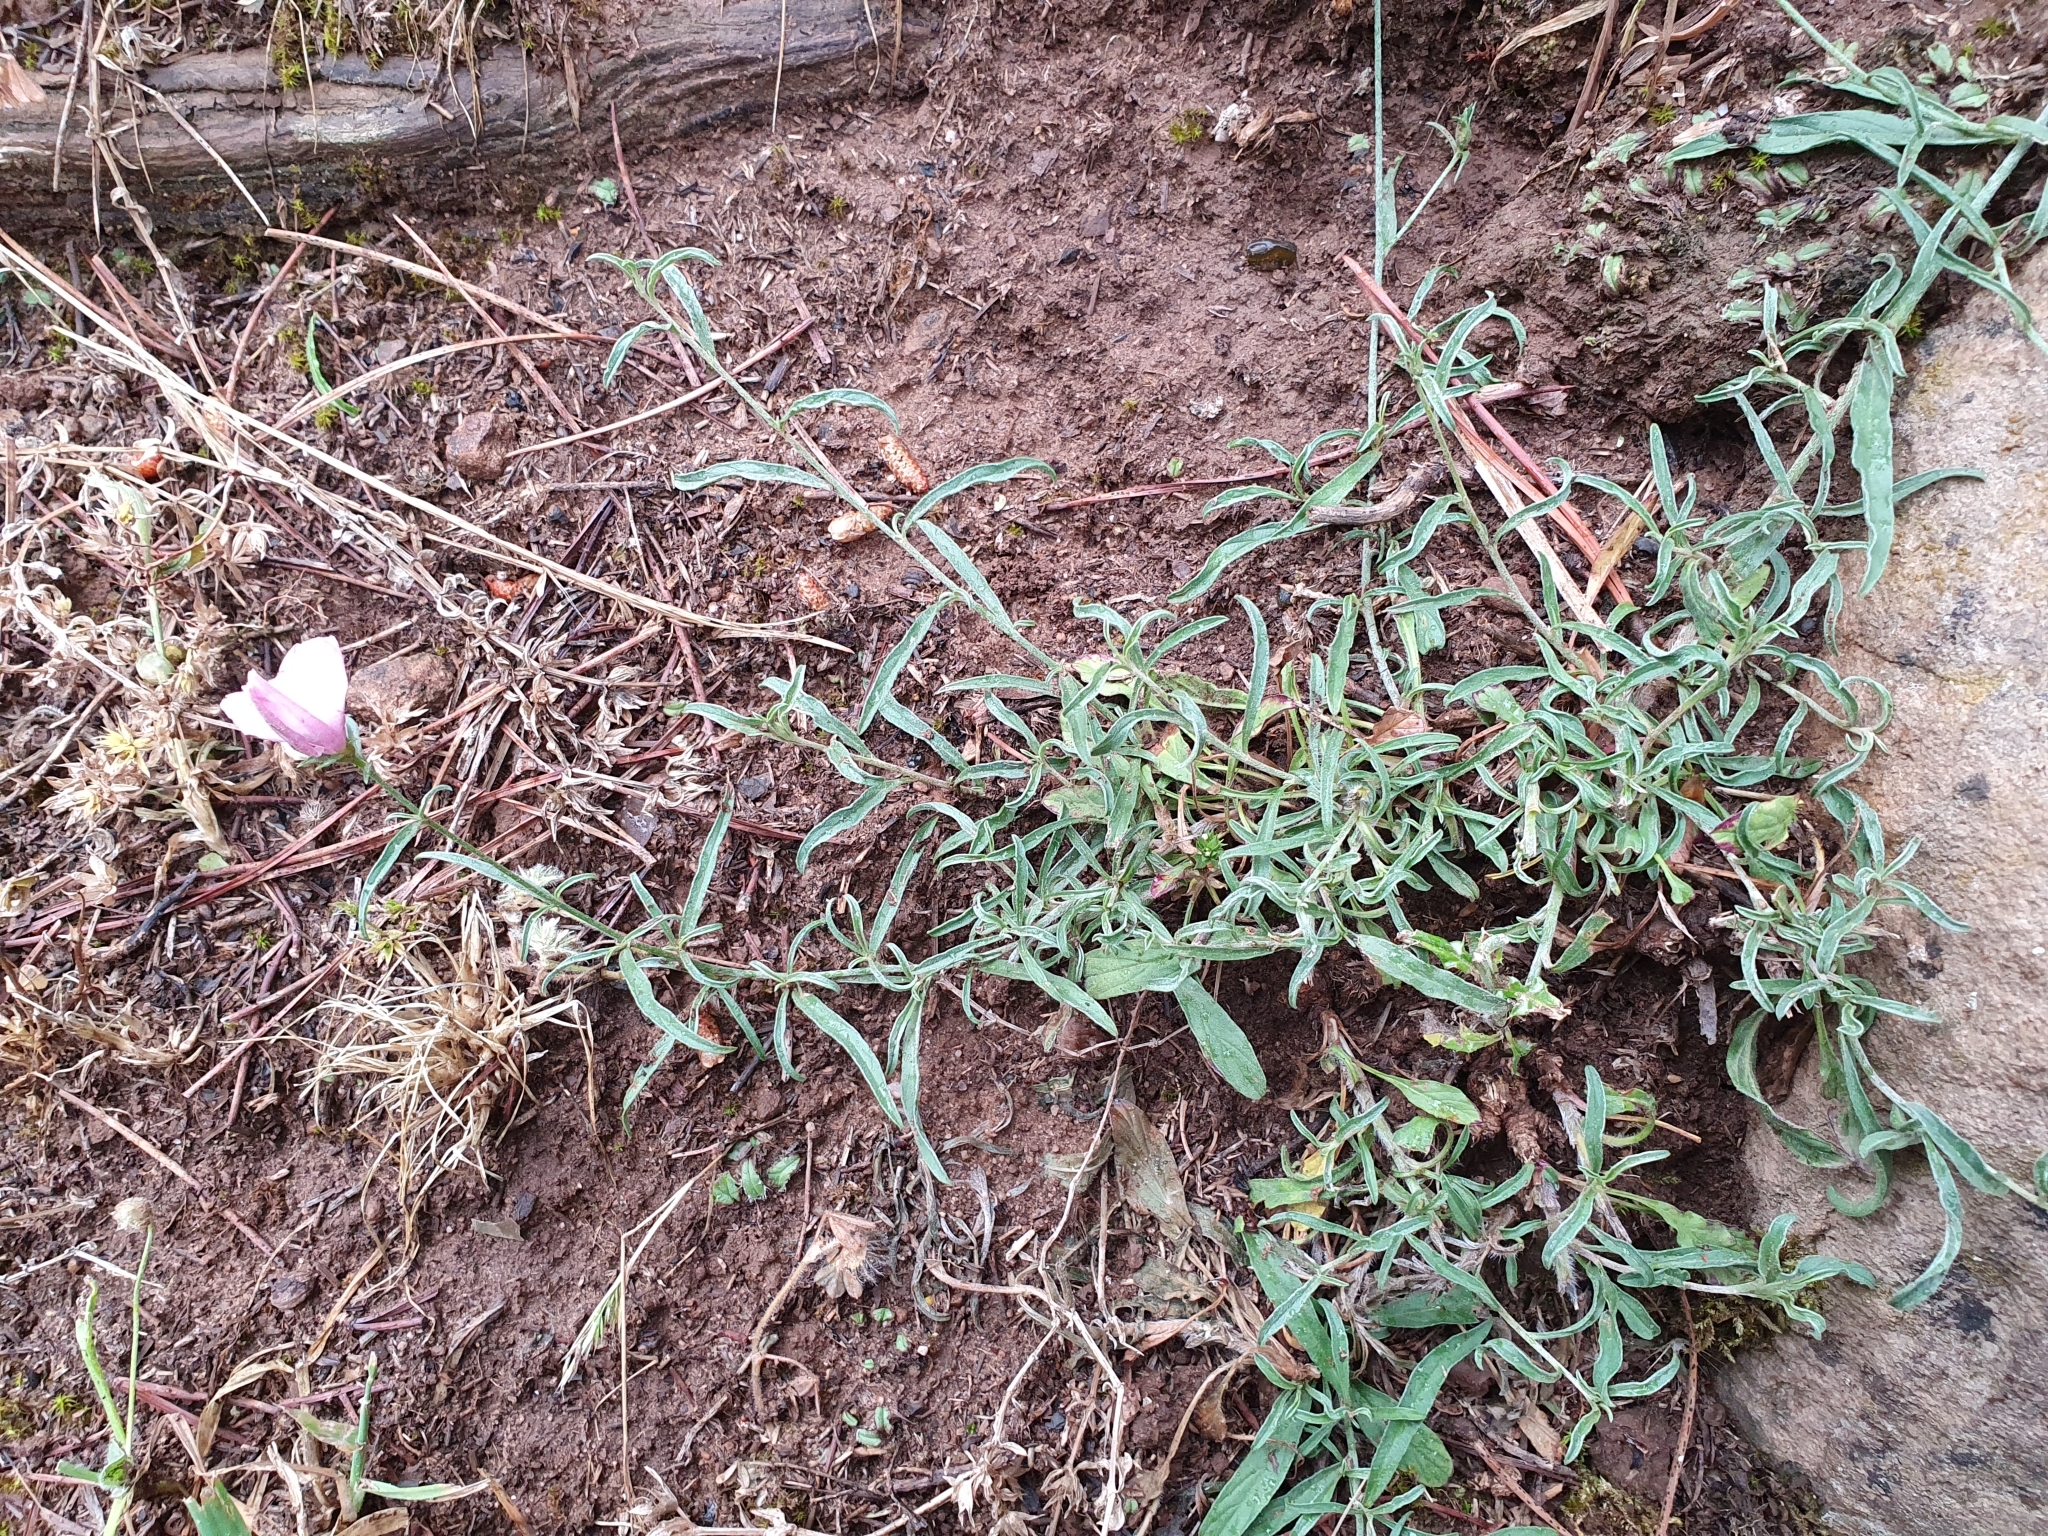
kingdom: Plantae
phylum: Tracheophyta
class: Magnoliopsida
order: Solanales
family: Convolvulaceae
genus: Convolvulus
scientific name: Convolvulus cantabrica
